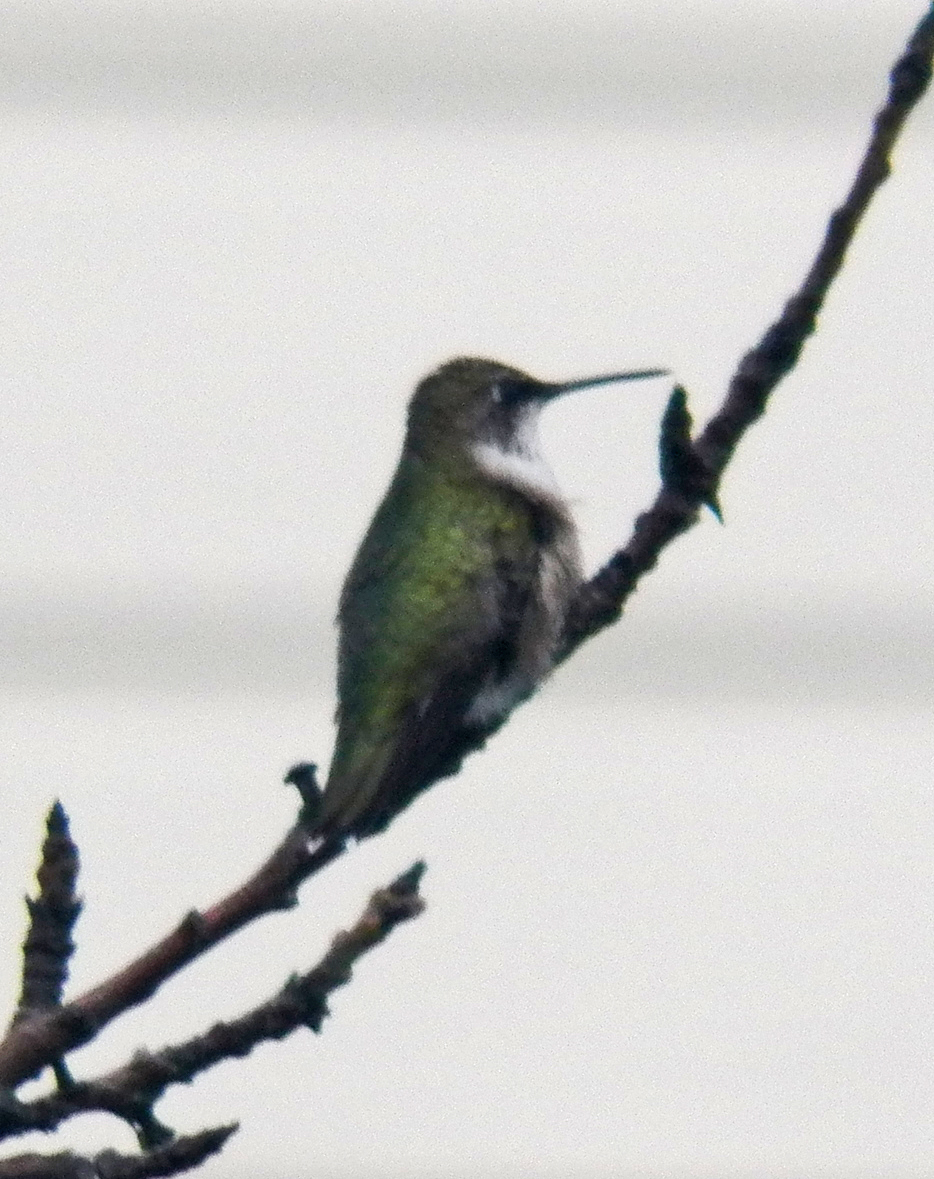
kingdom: Animalia
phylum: Chordata
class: Aves
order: Apodiformes
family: Trochilidae
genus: Archilochus
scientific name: Archilochus colubris
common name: Ruby-throated hummingbird
